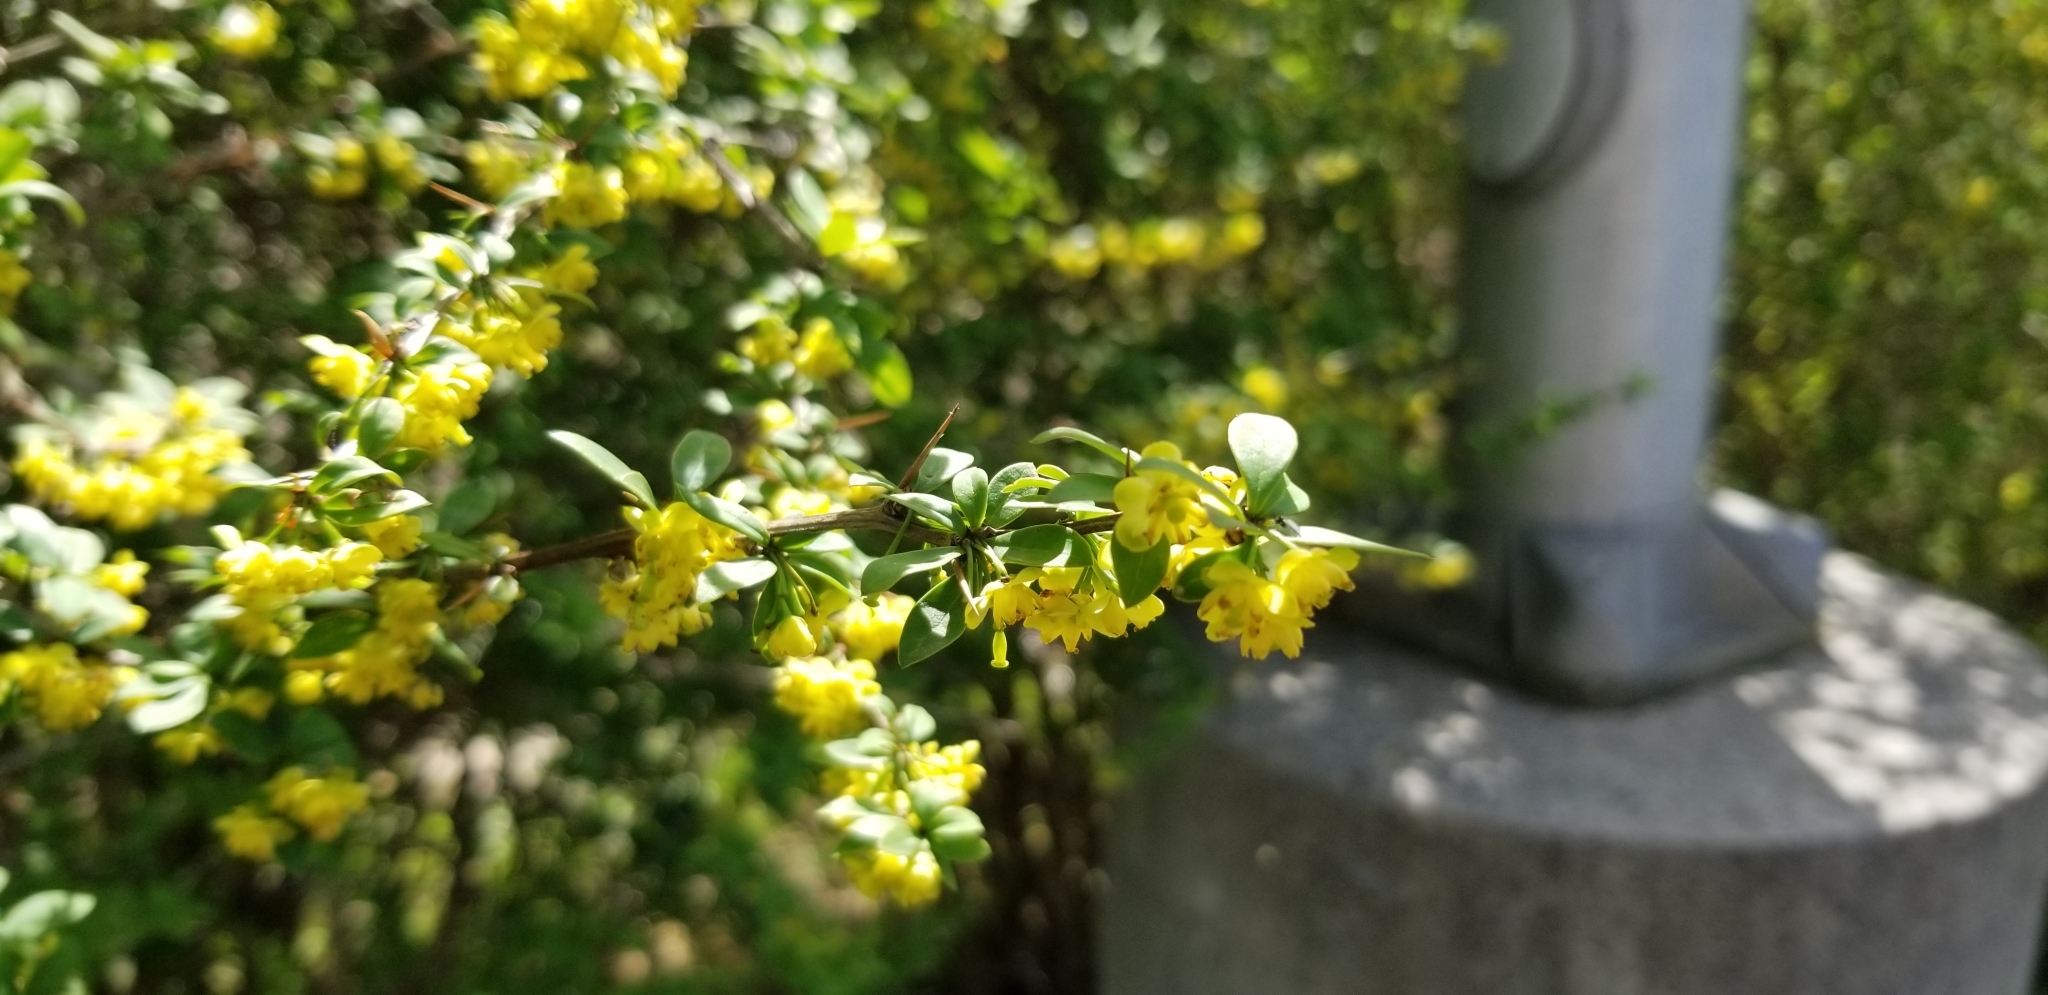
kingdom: Plantae
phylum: Tracheophyta
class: Magnoliopsida
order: Ranunculales
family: Berberidaceae
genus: Berberis
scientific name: Berberis thunbergii
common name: Japanese barberry
